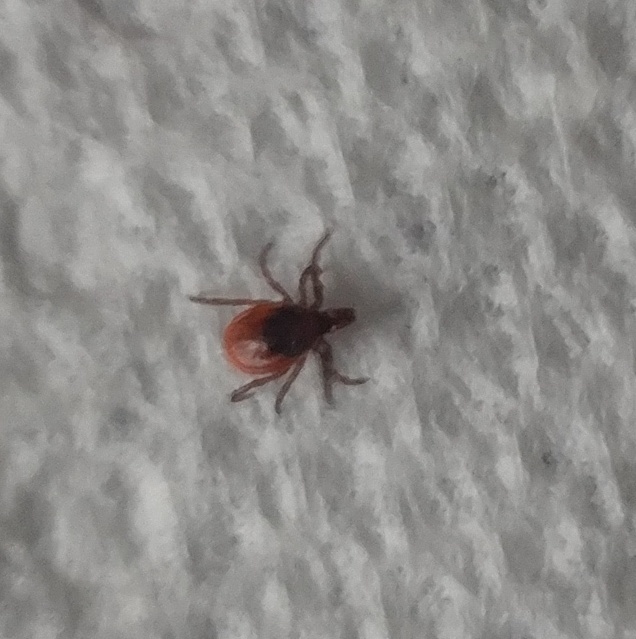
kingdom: Animalia
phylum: Arthropoda
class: Arachnida
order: Ixodida
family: Ixodidae
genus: Ixodes
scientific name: Ixodes scapularis
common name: Black legged tick
